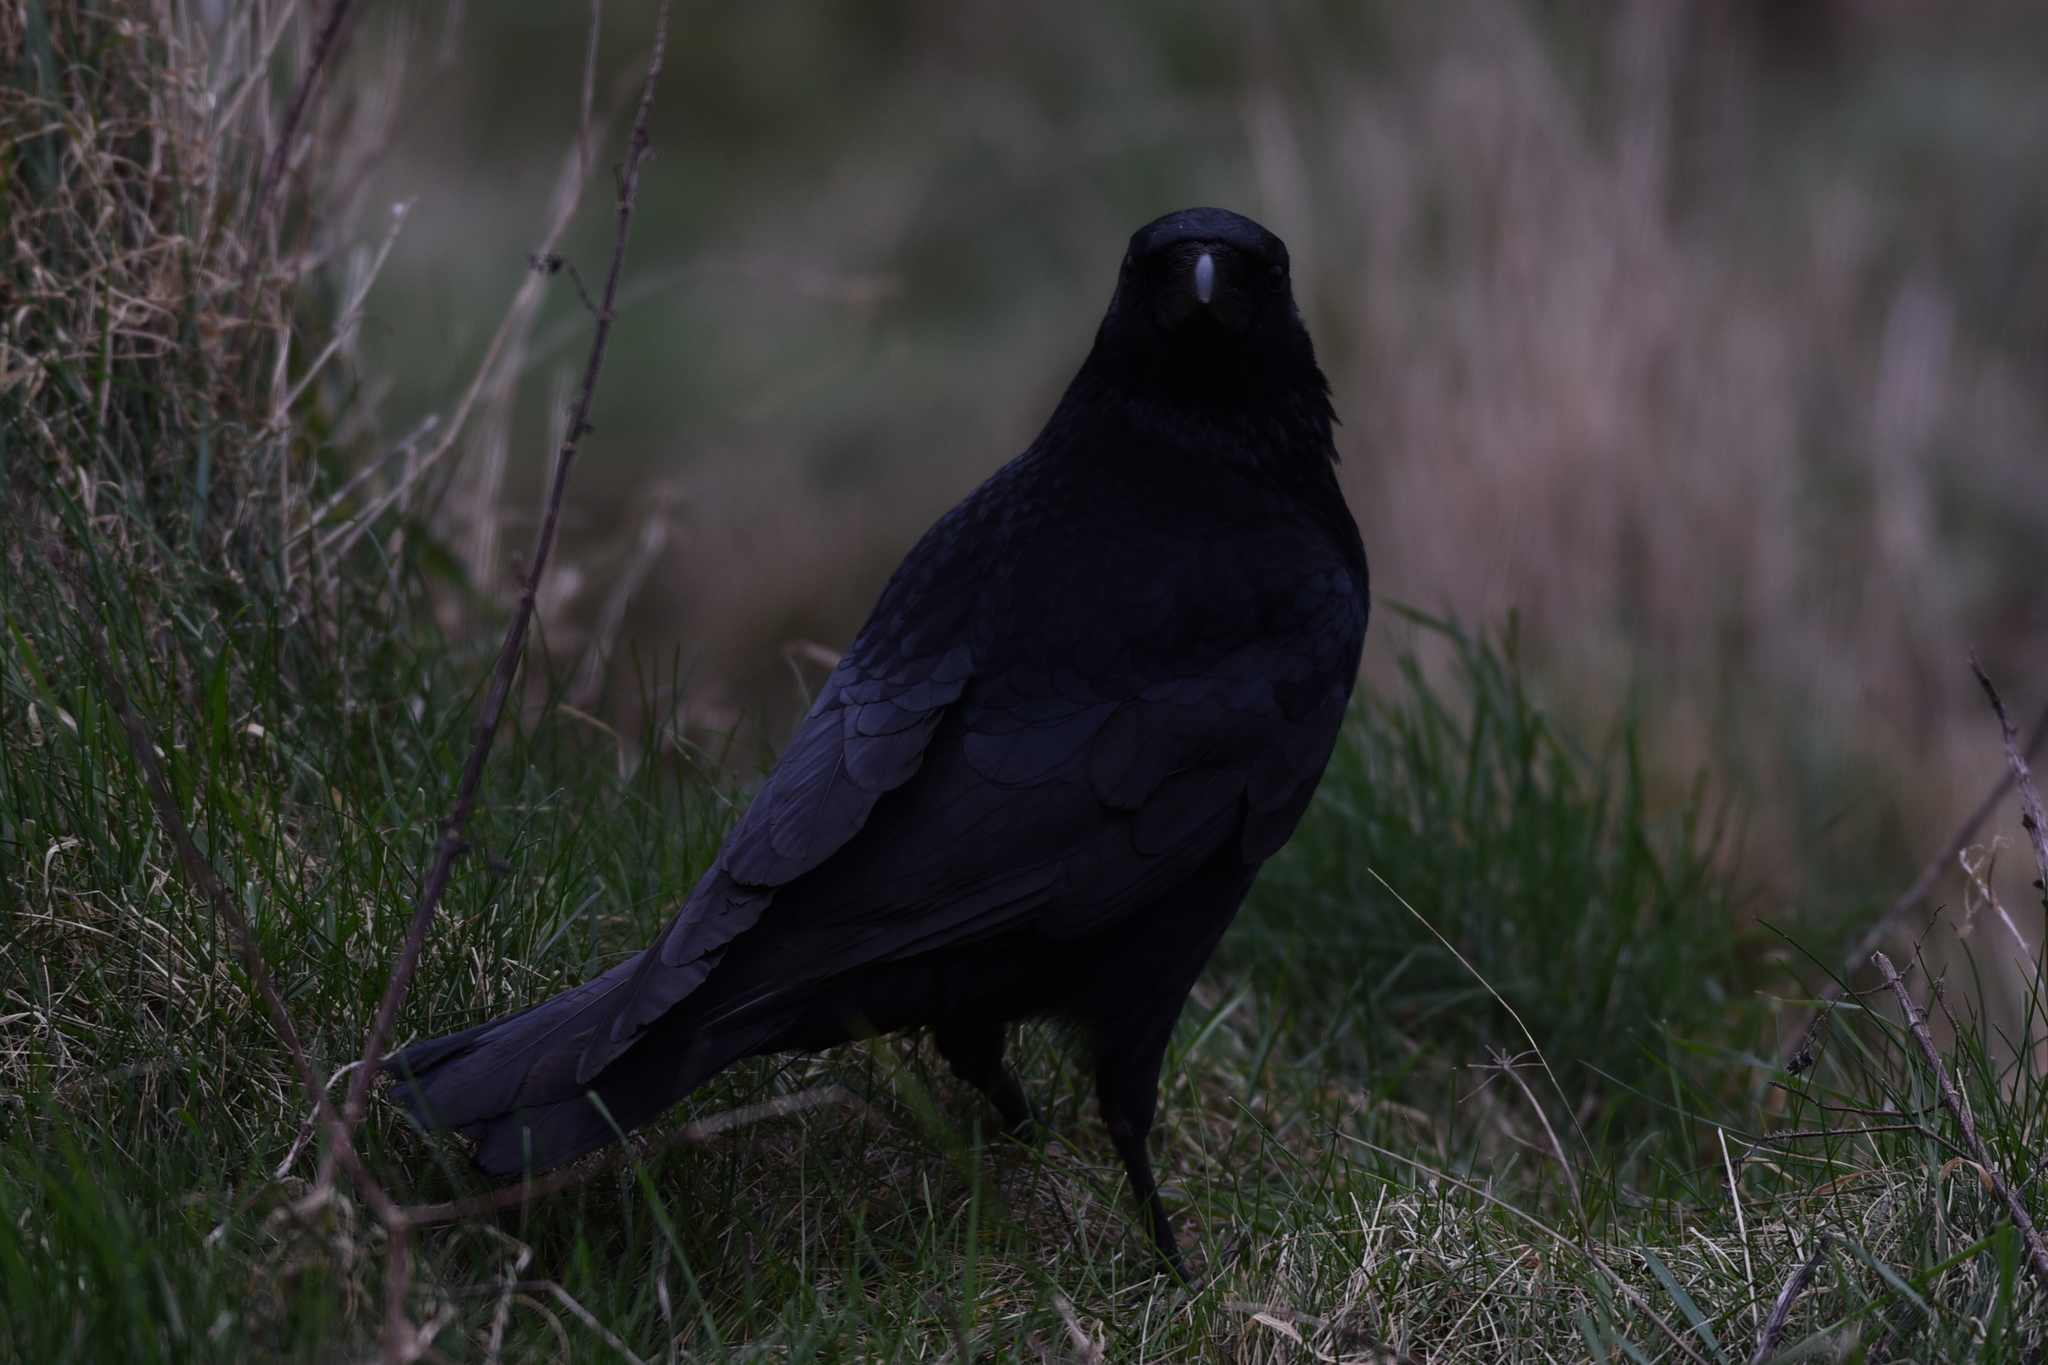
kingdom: Animalia
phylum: Chordata
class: Aves
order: Passeriformes
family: Corvidae
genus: Corvus
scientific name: Corvus corone
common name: Carrion crow
